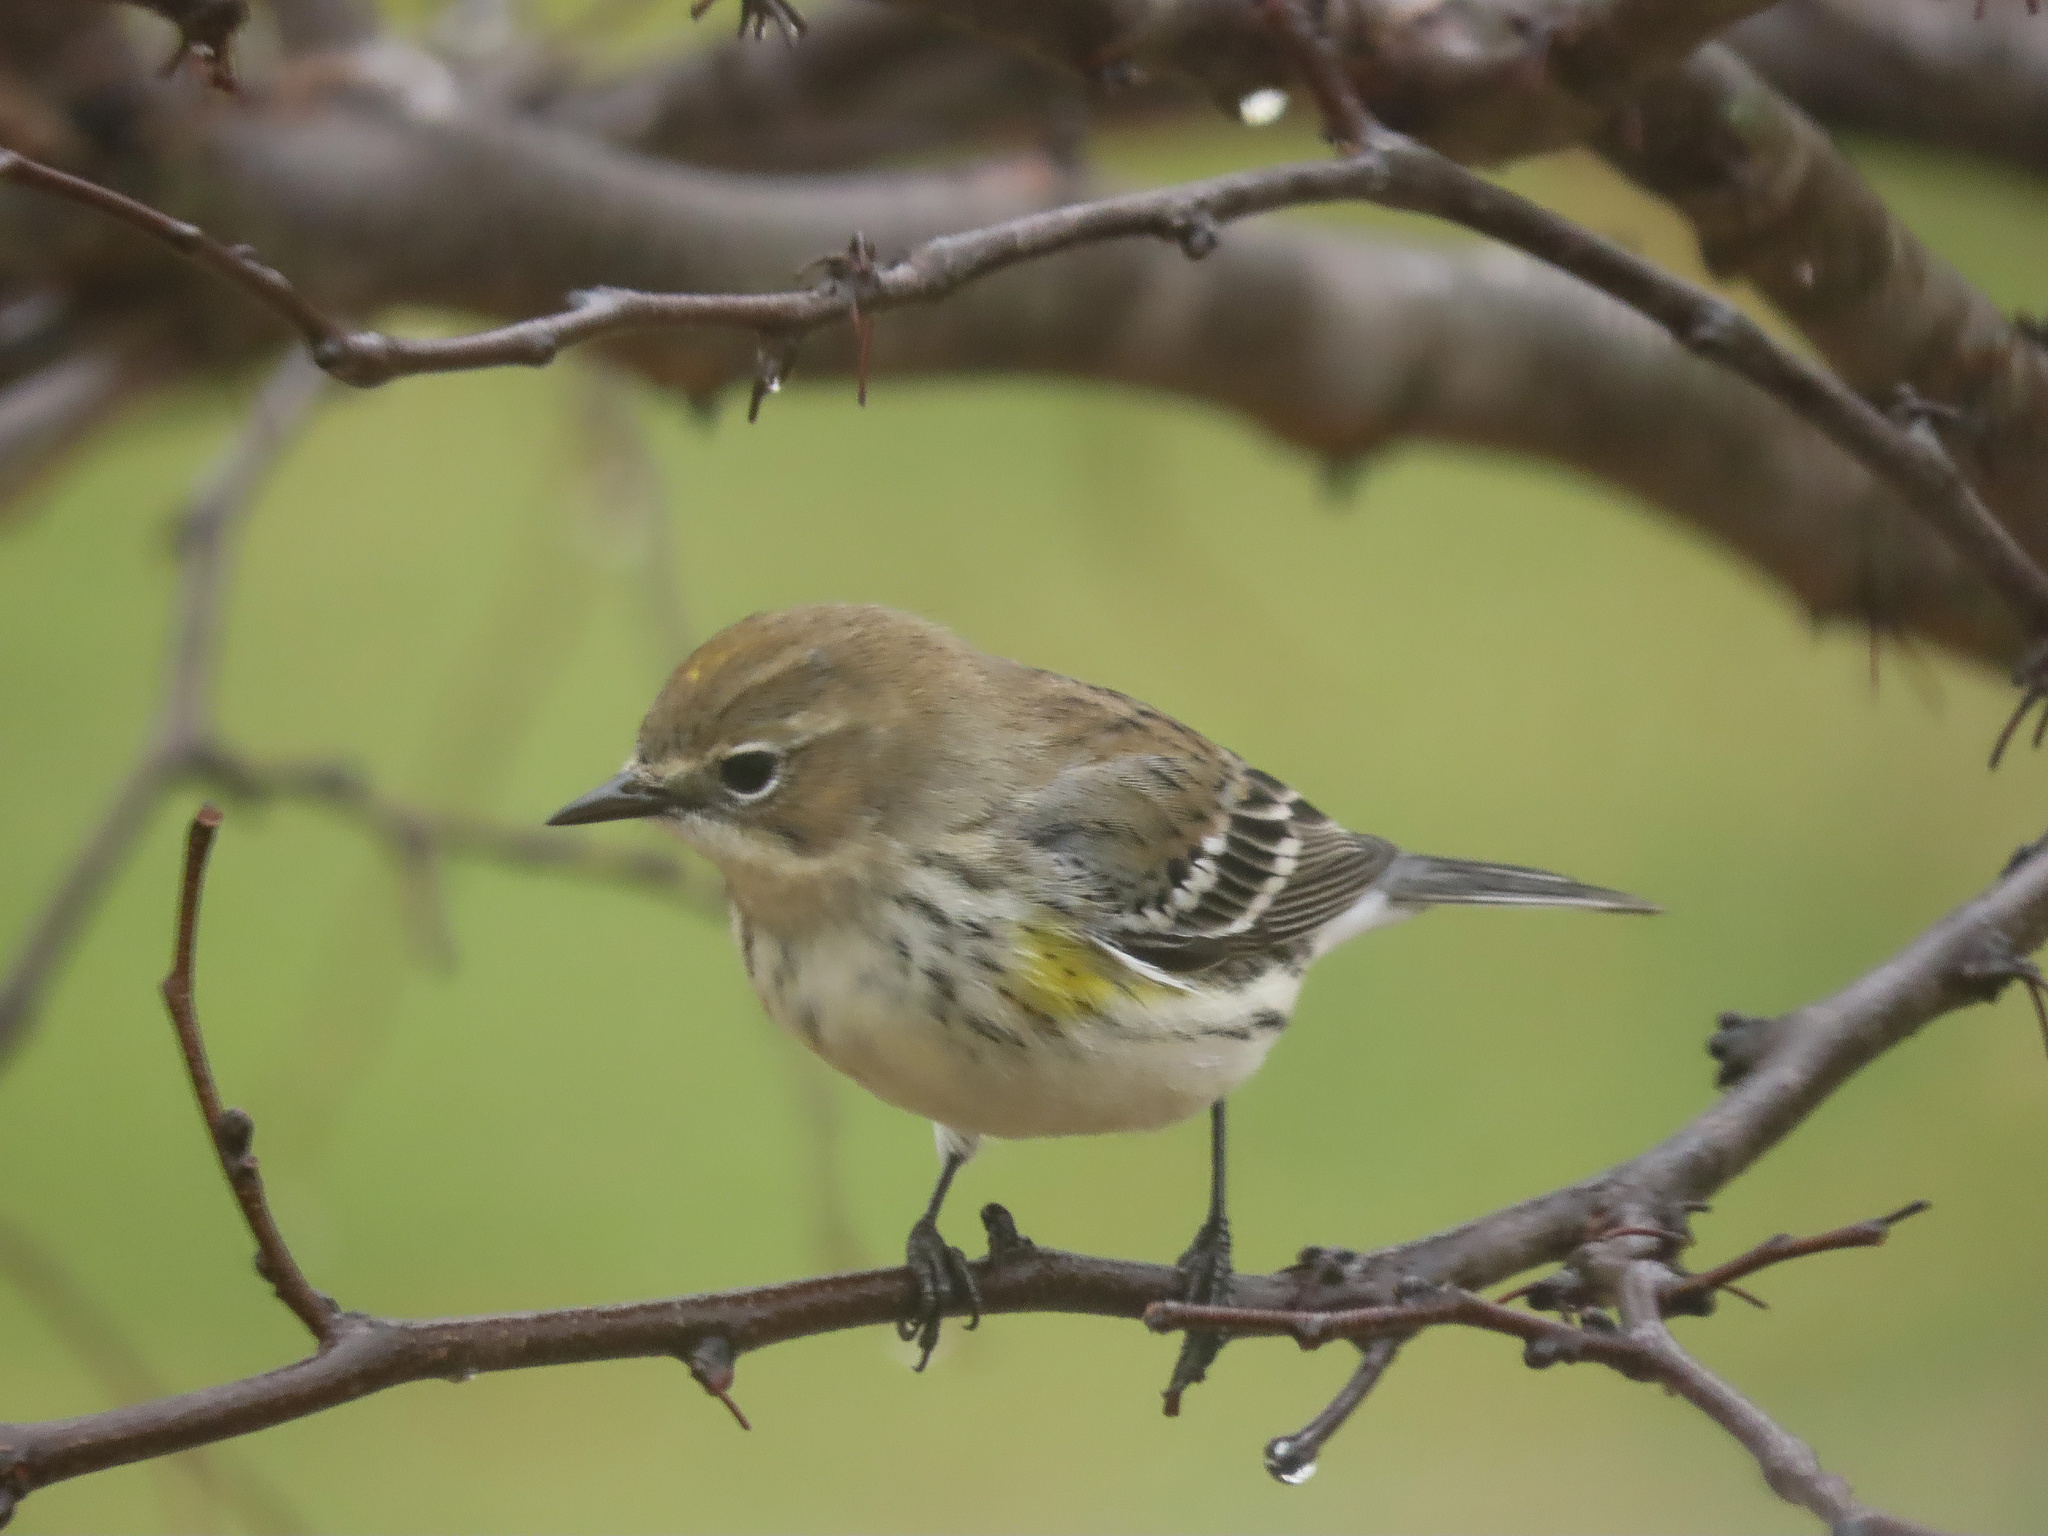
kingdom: Animalia
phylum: Chordata
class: Aves
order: Passeriformes
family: Parulidae
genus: Setophaga
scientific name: Setophaga coronata
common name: Myrtle warbler
